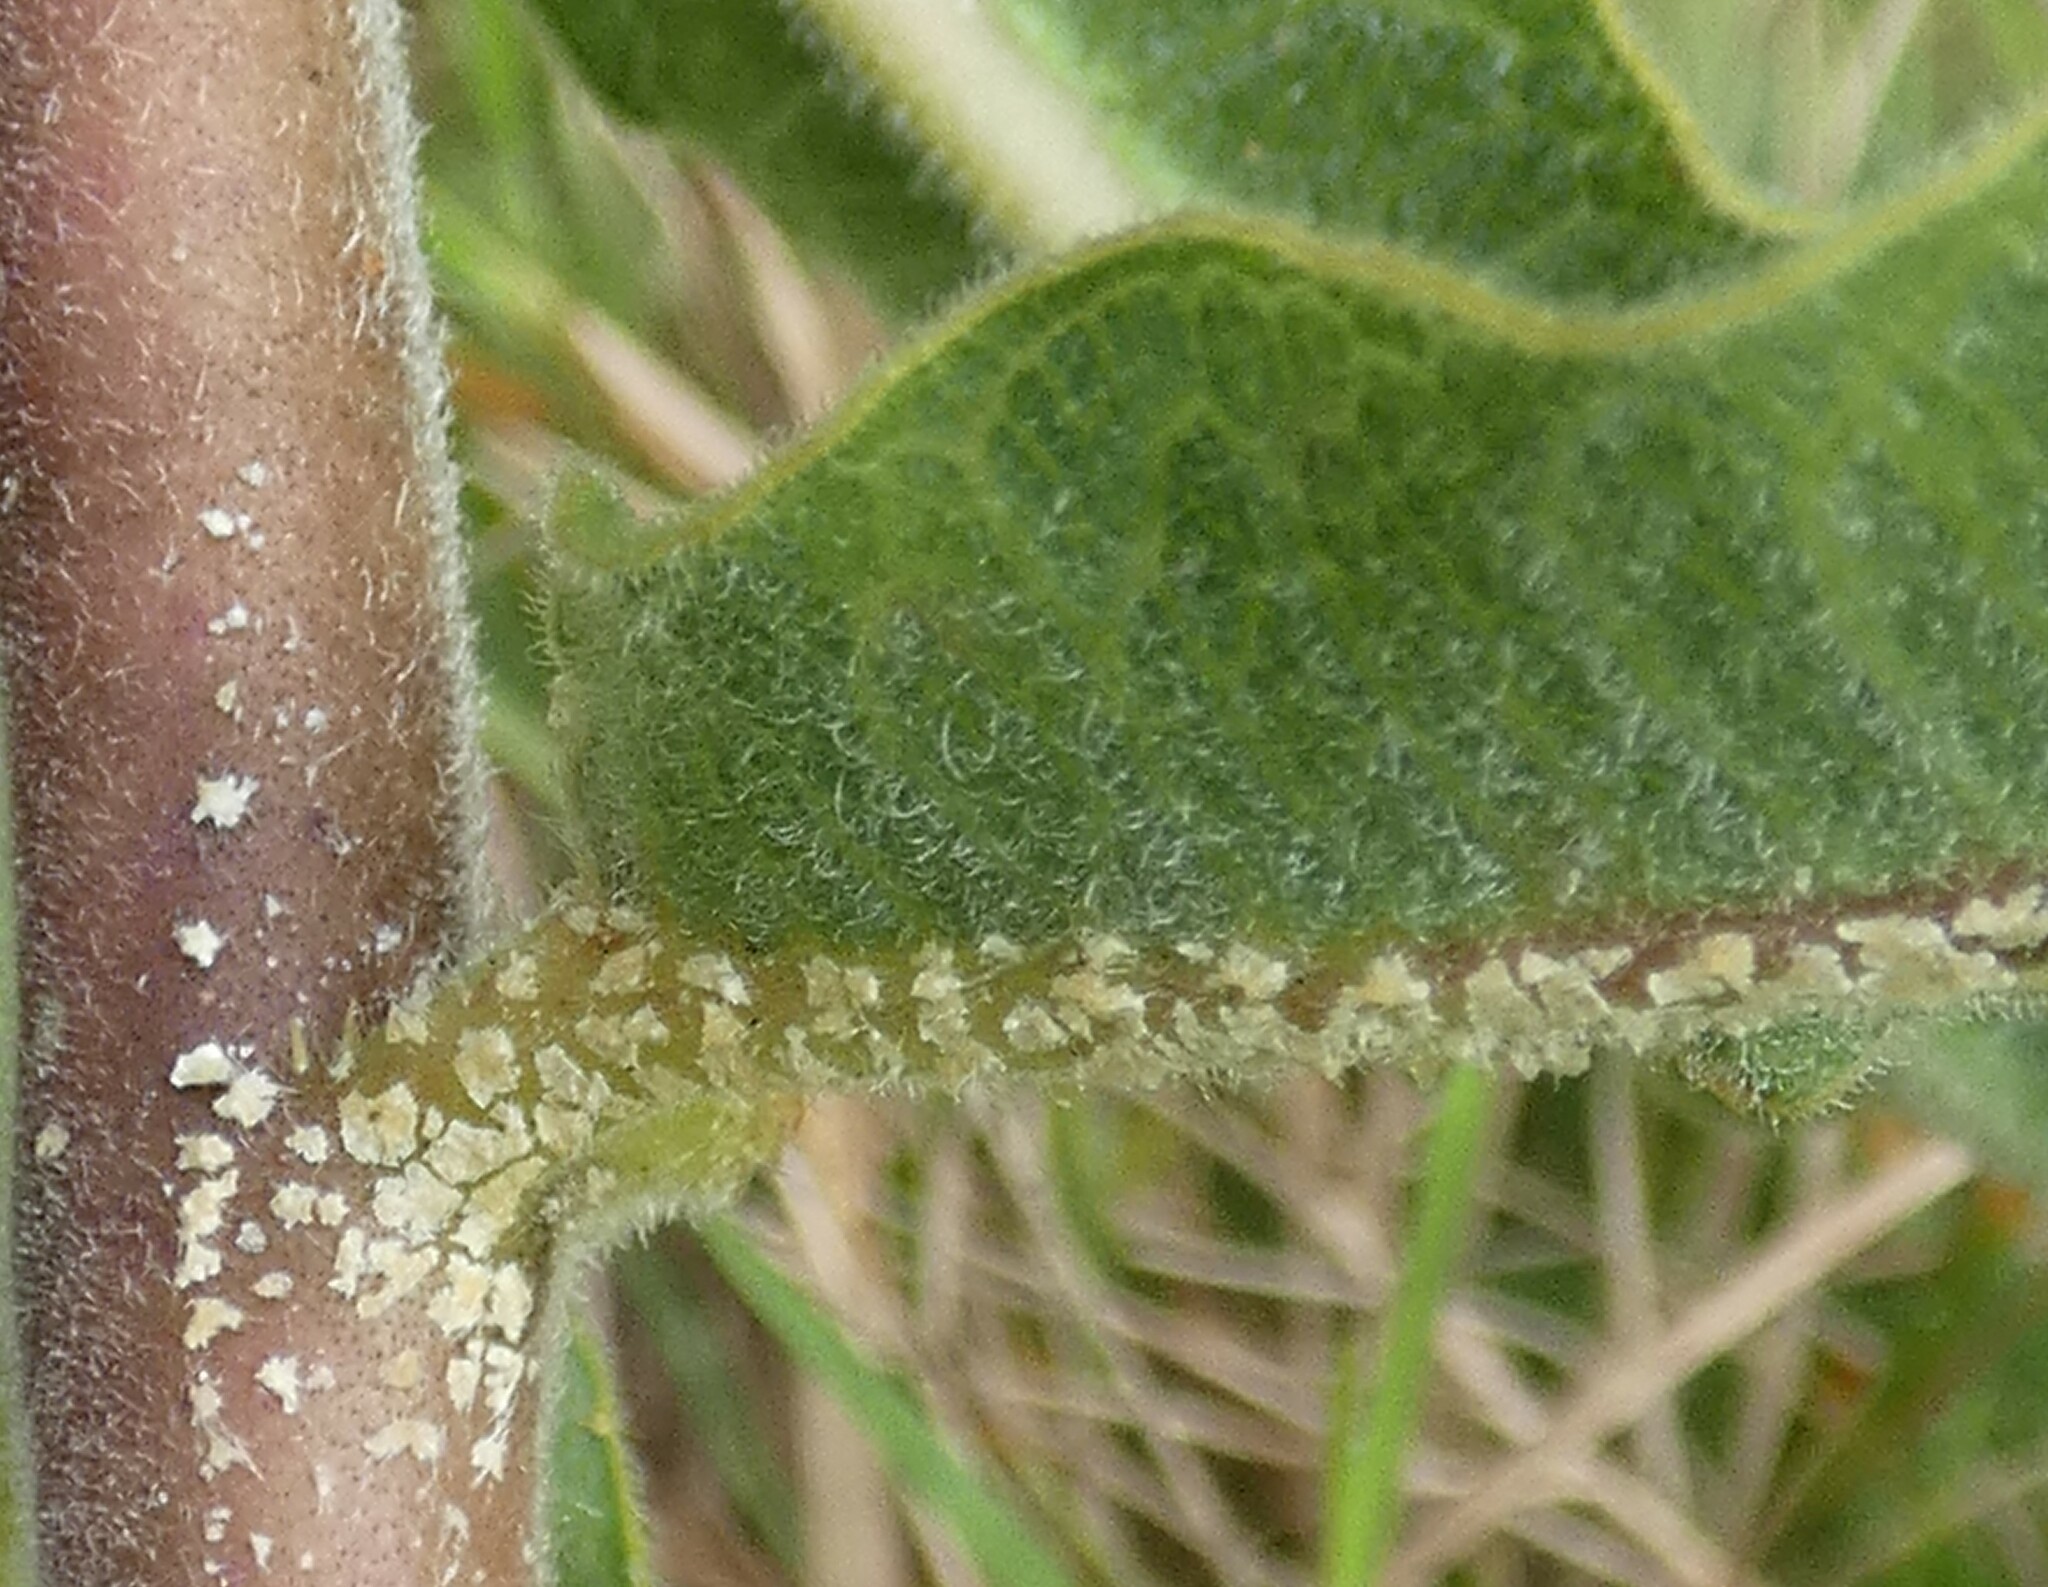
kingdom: Plantae
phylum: Tracheophyta
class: Magnoliopsida
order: Gentianales
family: Apocynaceae
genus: Asclepias
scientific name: Asclepias obovata
